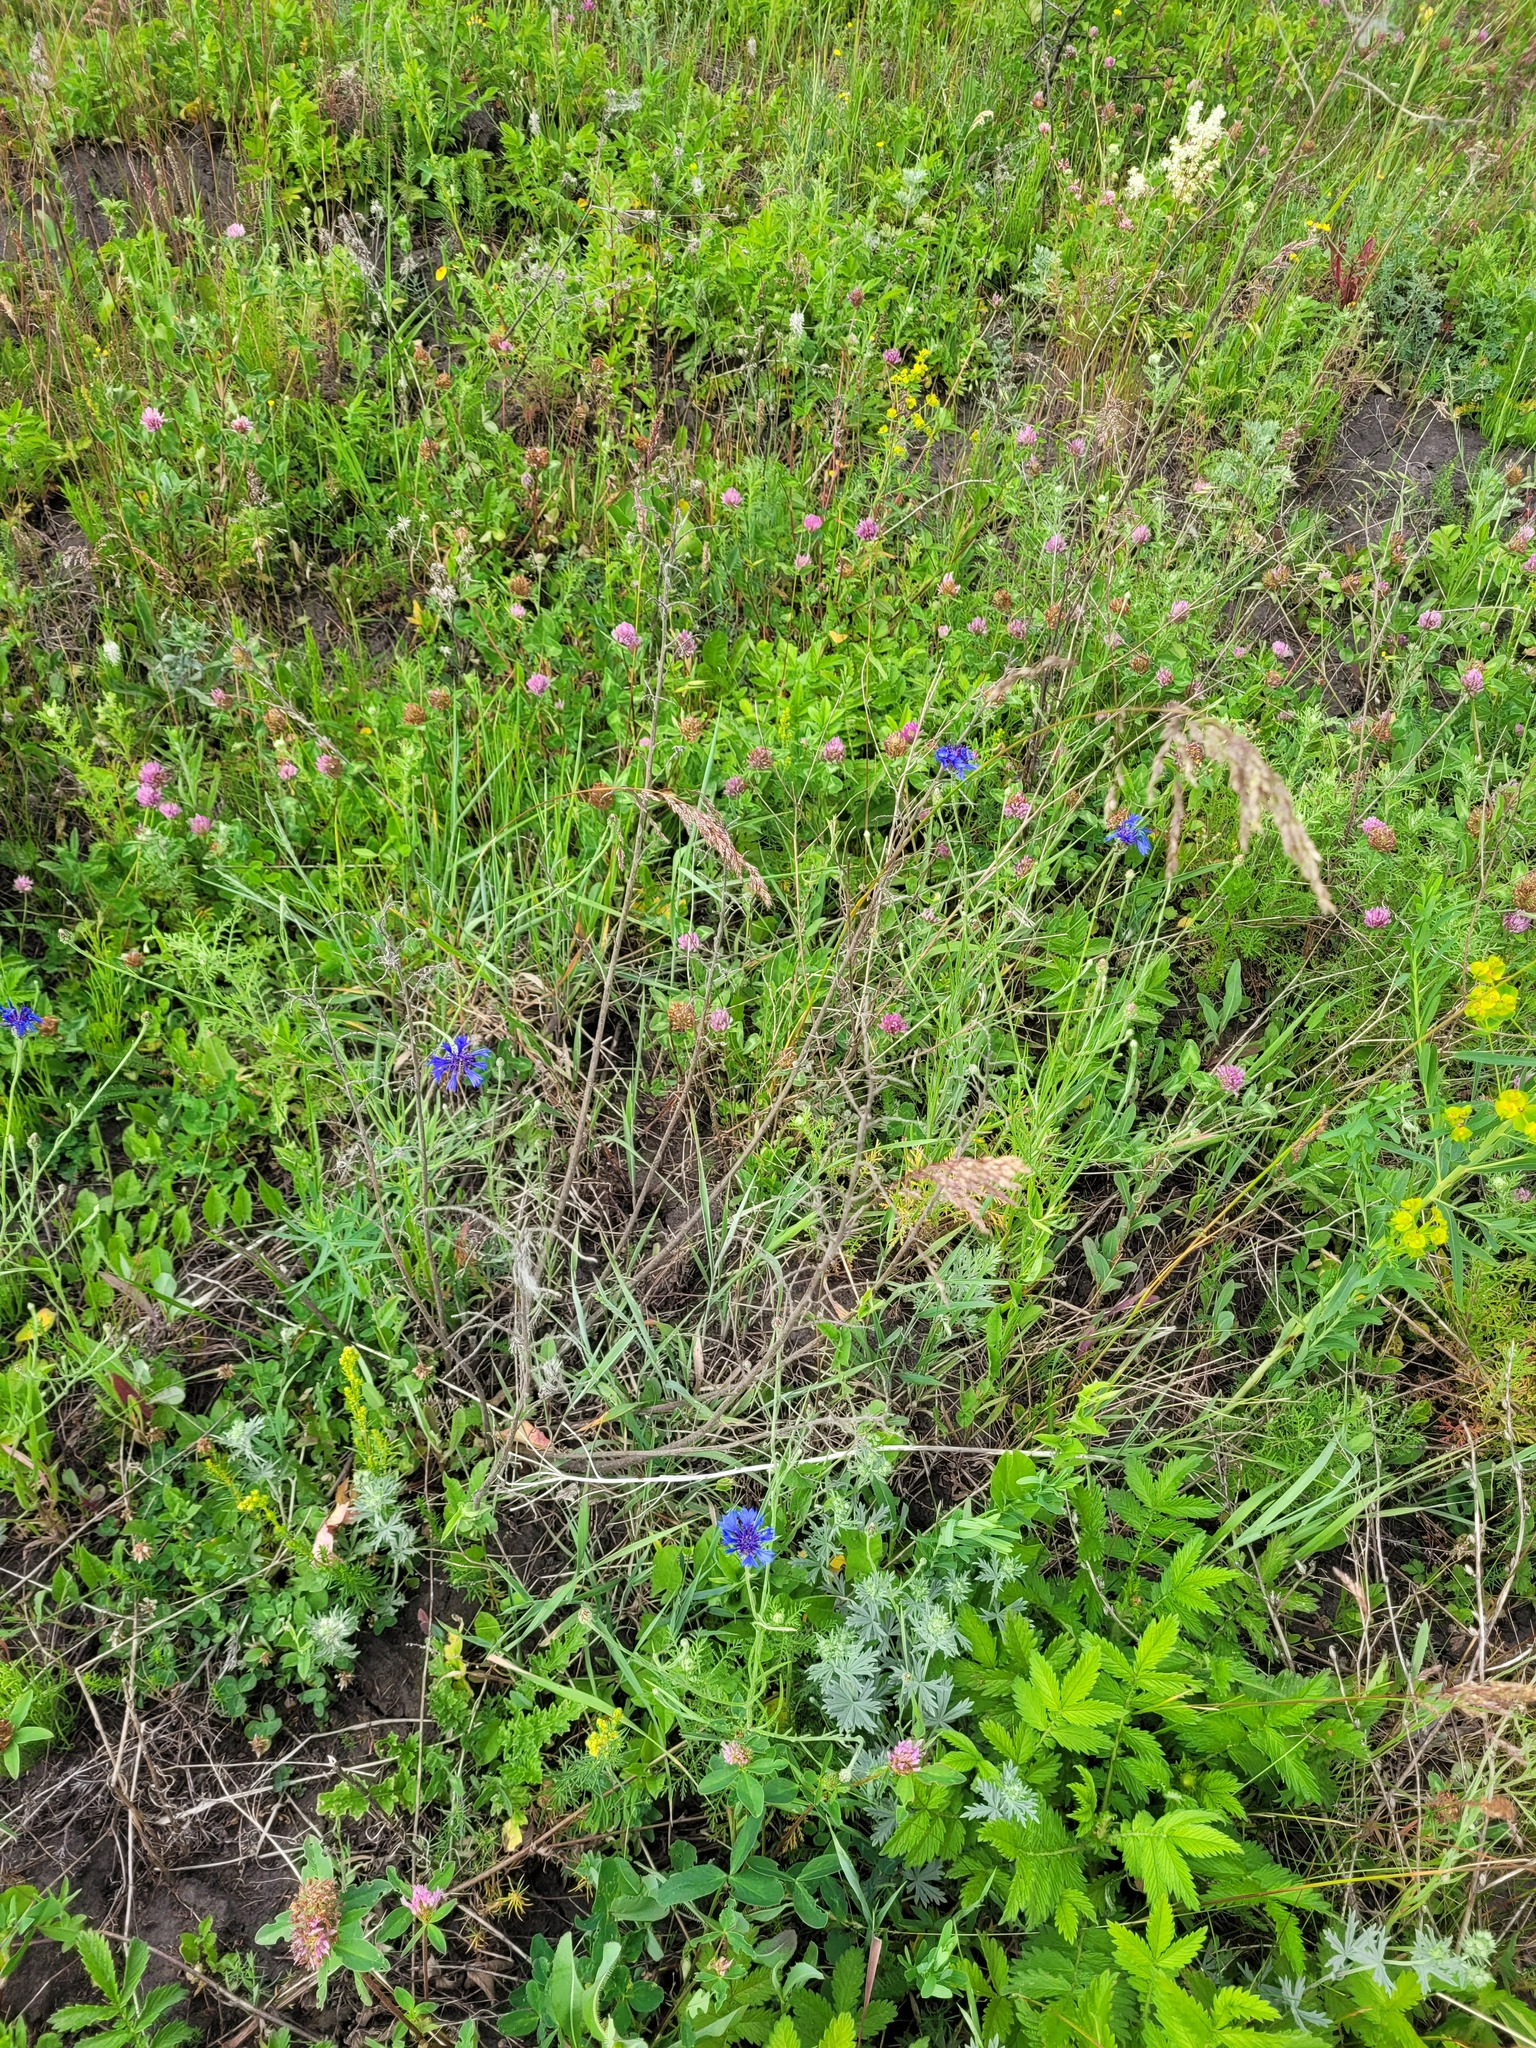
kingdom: Plantae
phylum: Tracheophyta
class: Magnoliopsida
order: Asterales
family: Asteraceae
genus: Centaurea
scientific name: Centaurea cyanus
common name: Cornflower
